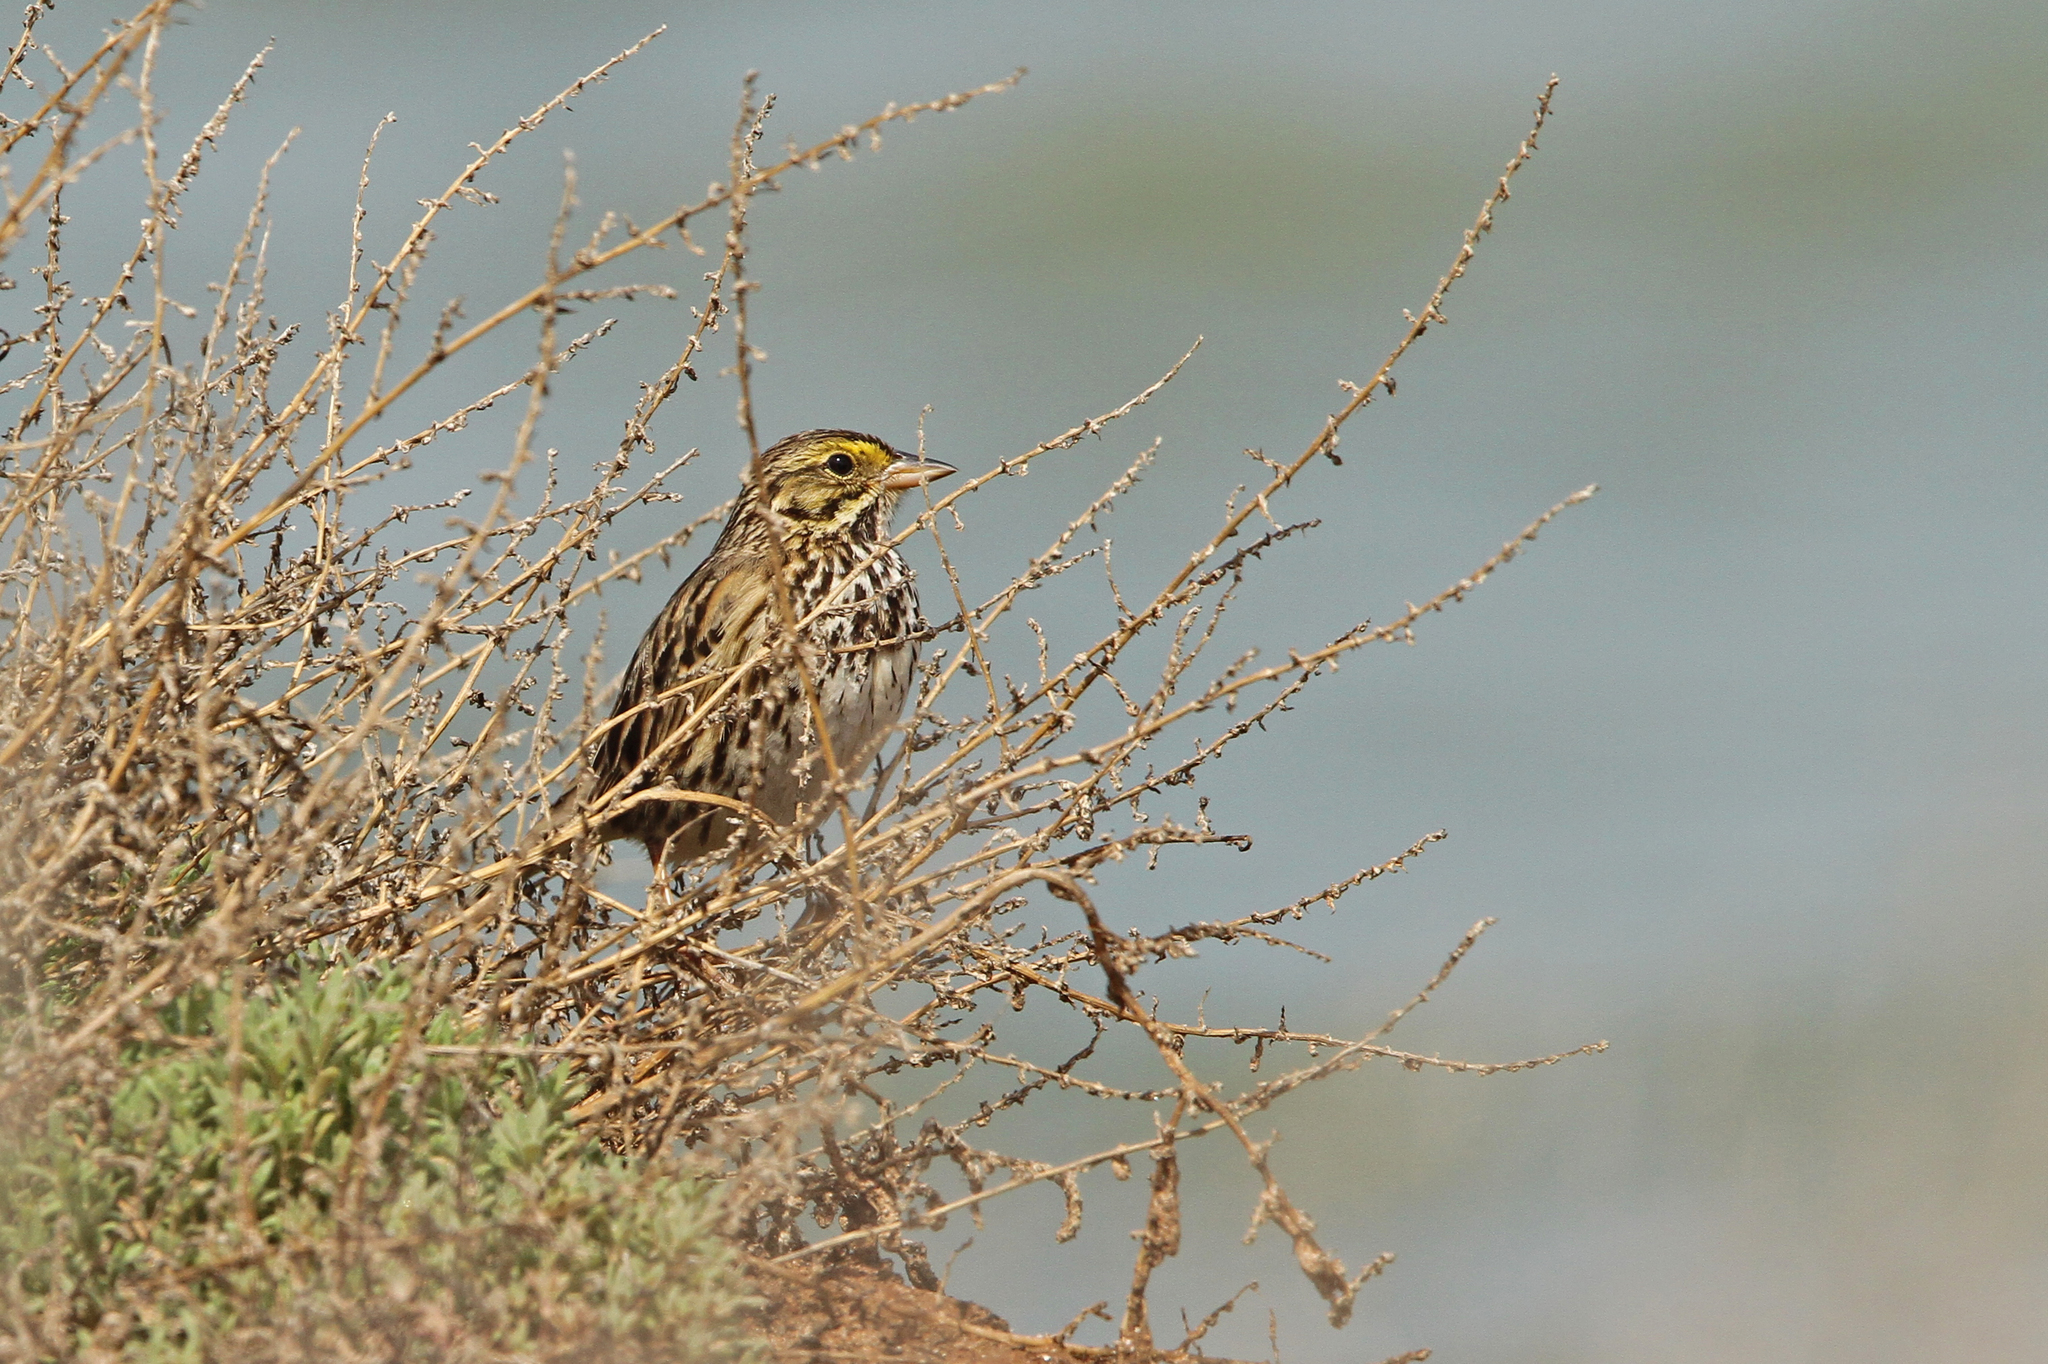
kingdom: Animalia
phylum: Chordata
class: Aves
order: Passeriformes
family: Passerellidae
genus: Passerculus
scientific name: Passerculus sandwichensis
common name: Savannah sparrow
